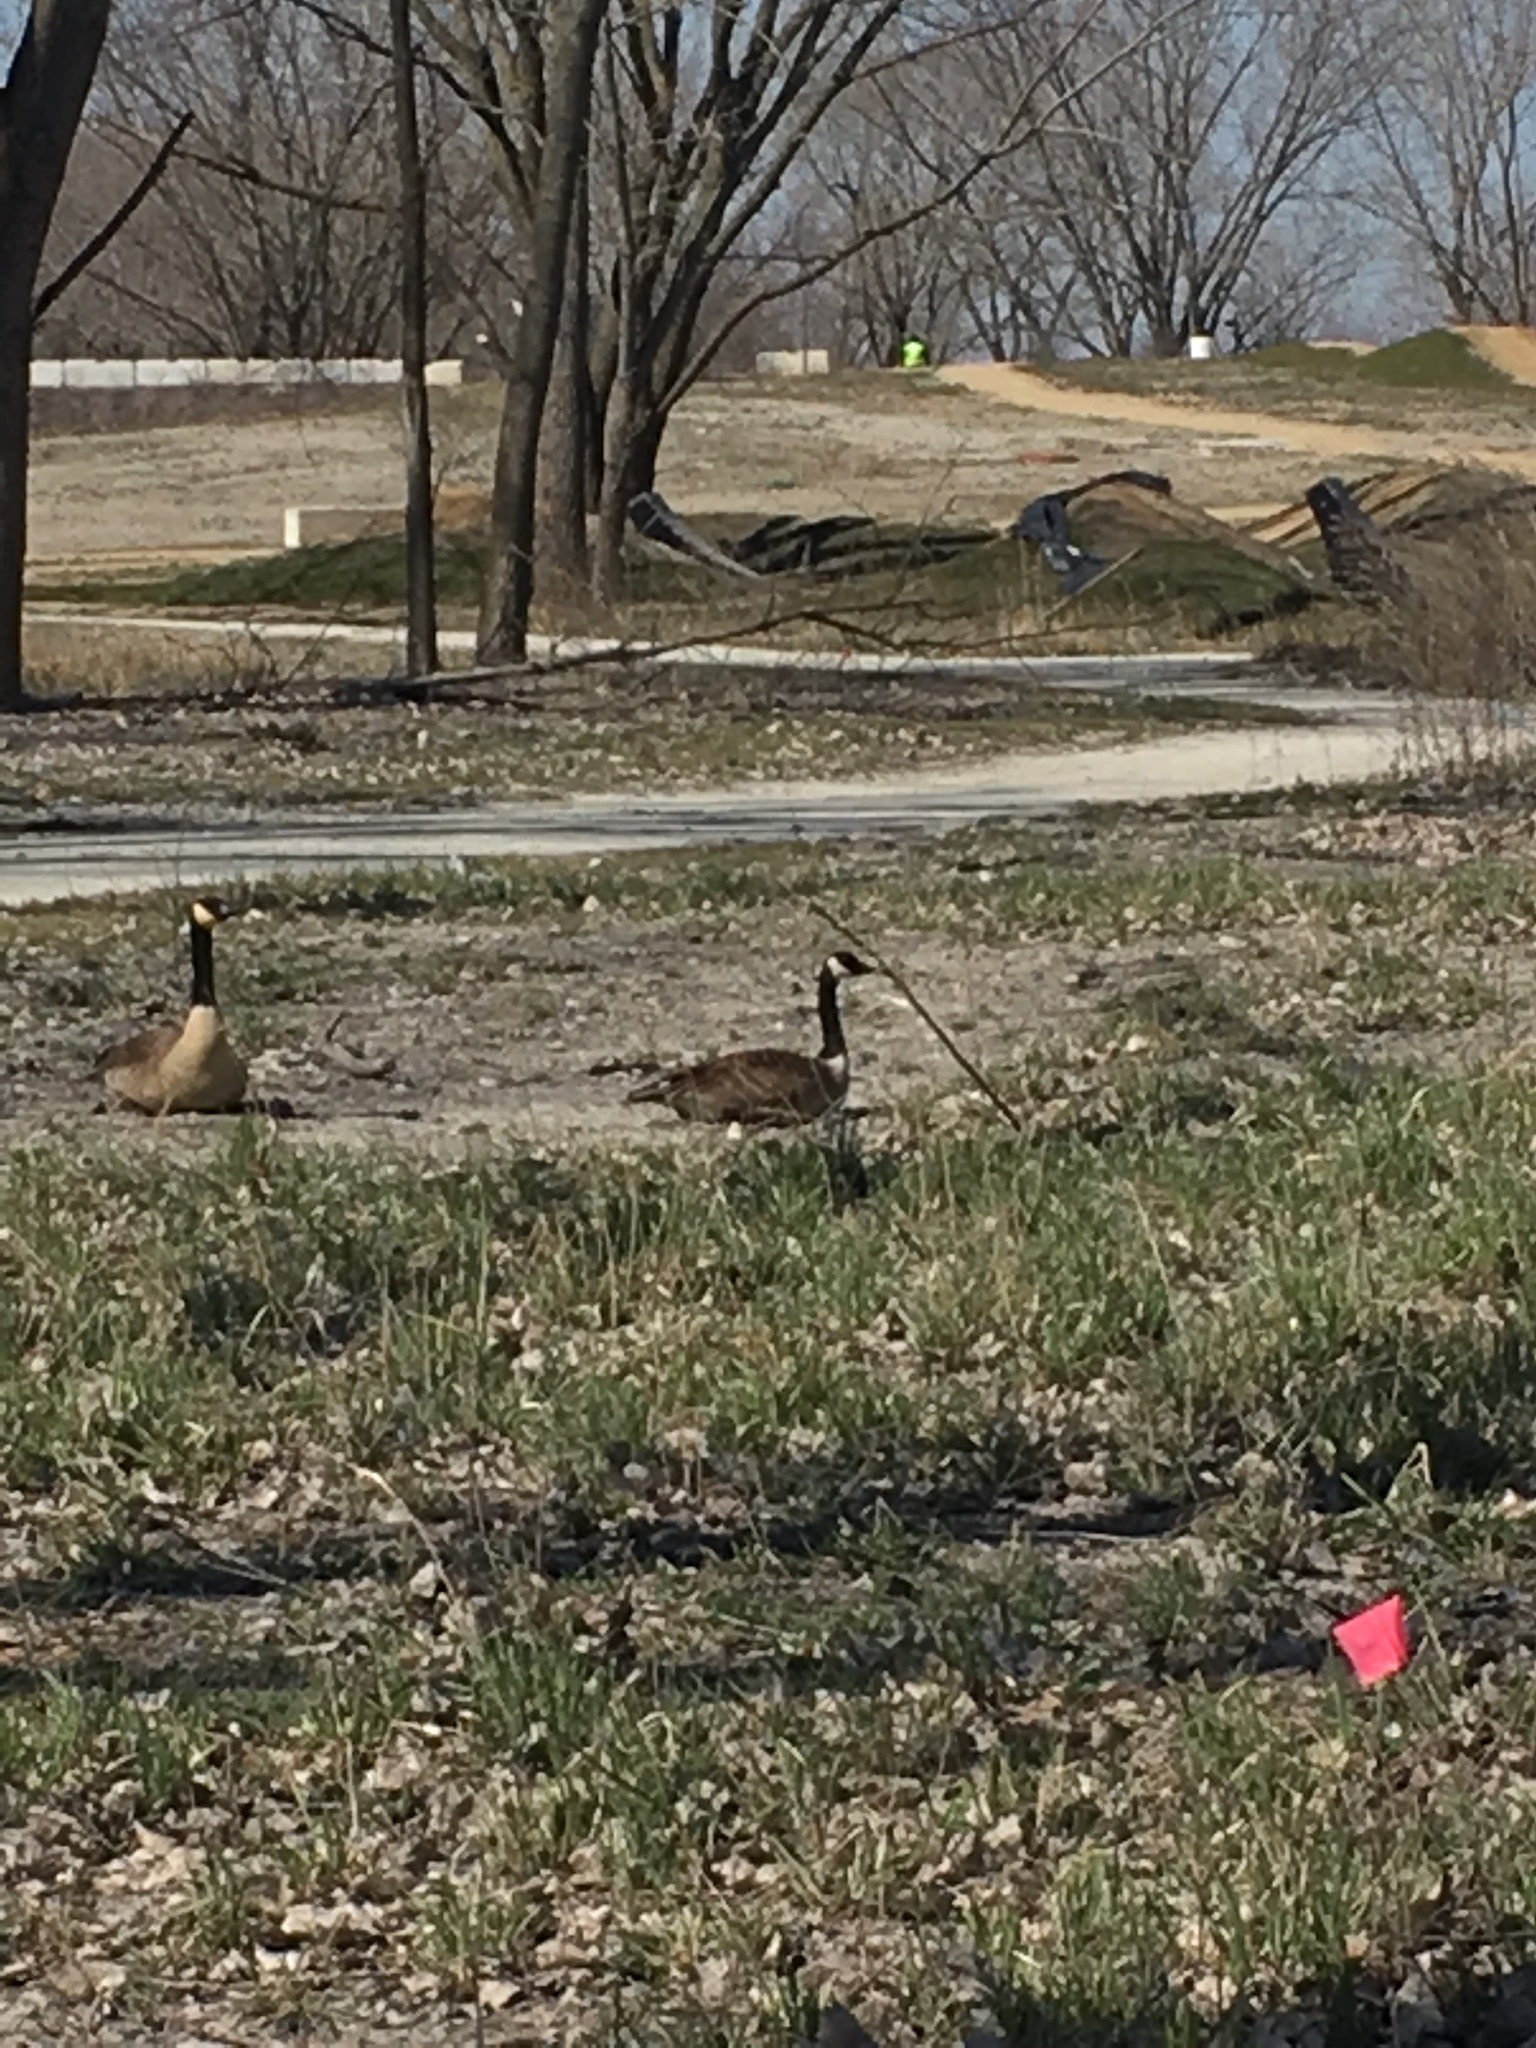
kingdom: Animalia
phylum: Chordata
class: Aves
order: Anseriformes
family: Anatidae
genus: Branta
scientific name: Branta canadensis
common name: Canada goose
